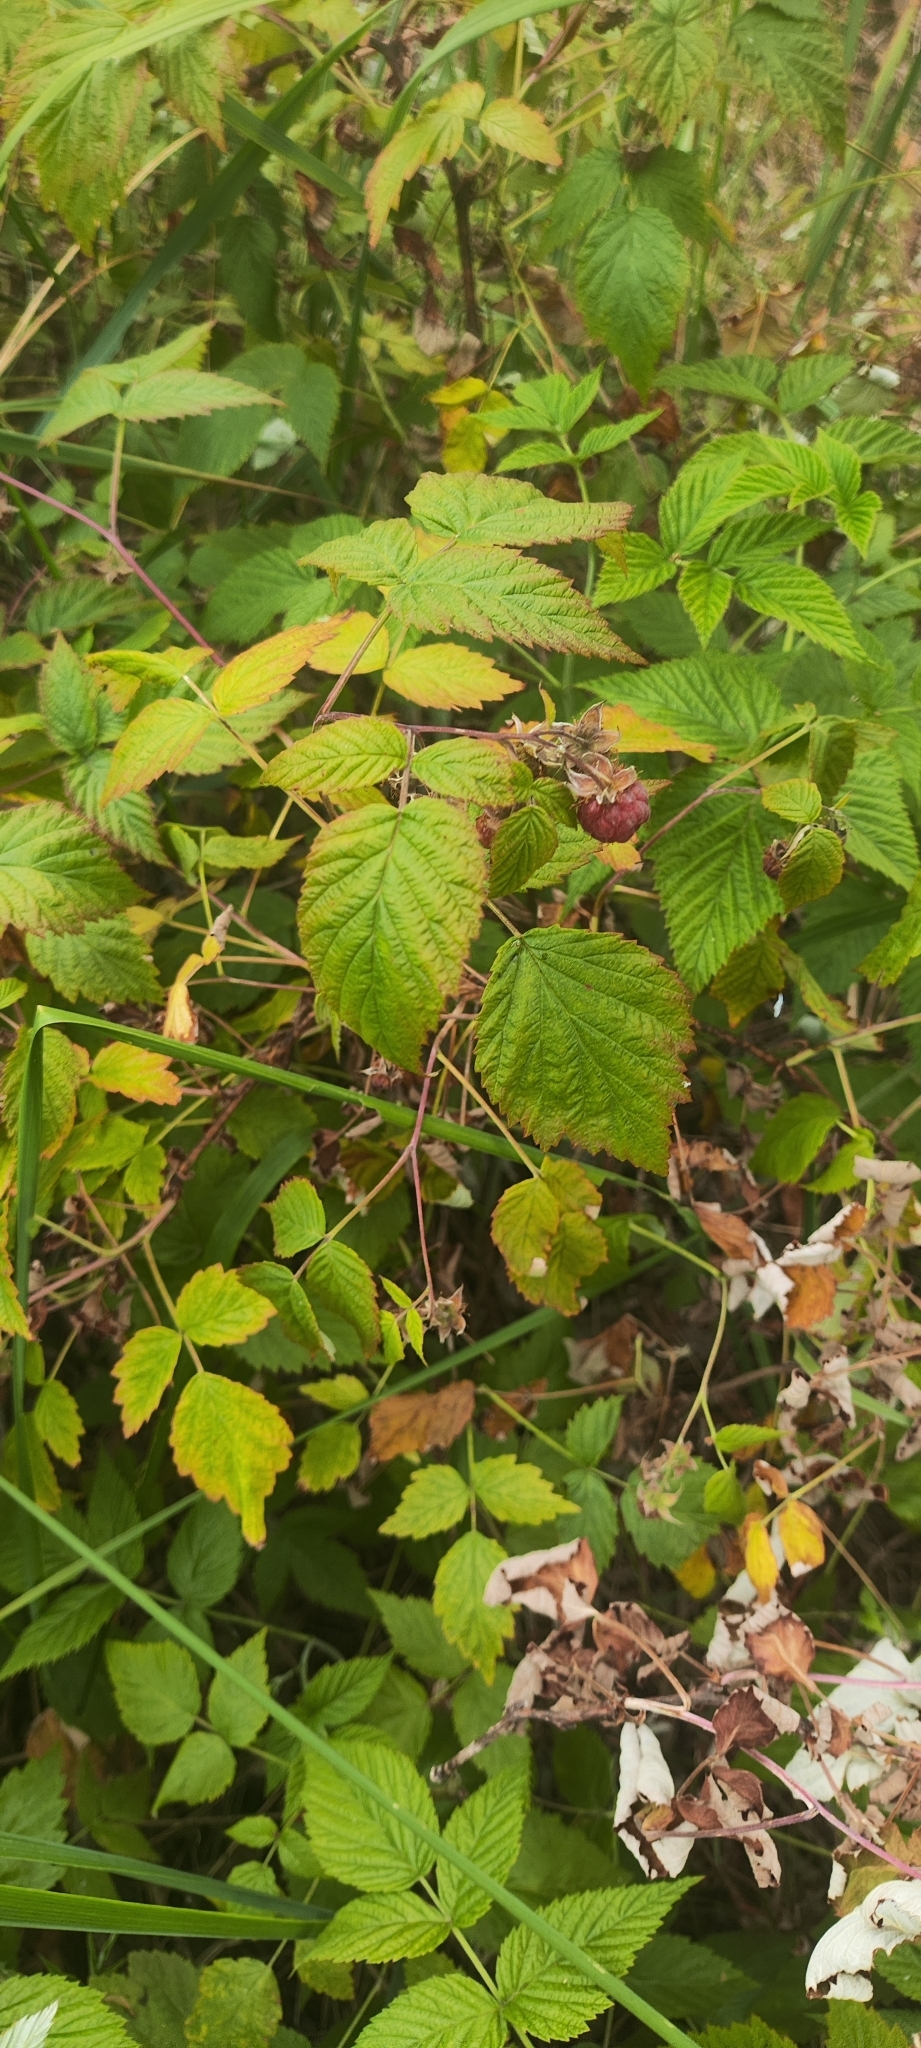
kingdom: Plantae
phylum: Tracheophyta
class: Magnoliopsida
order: Rosales
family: Rosaceae
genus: Rubus
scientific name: Rubus idaeus
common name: Raspberry
